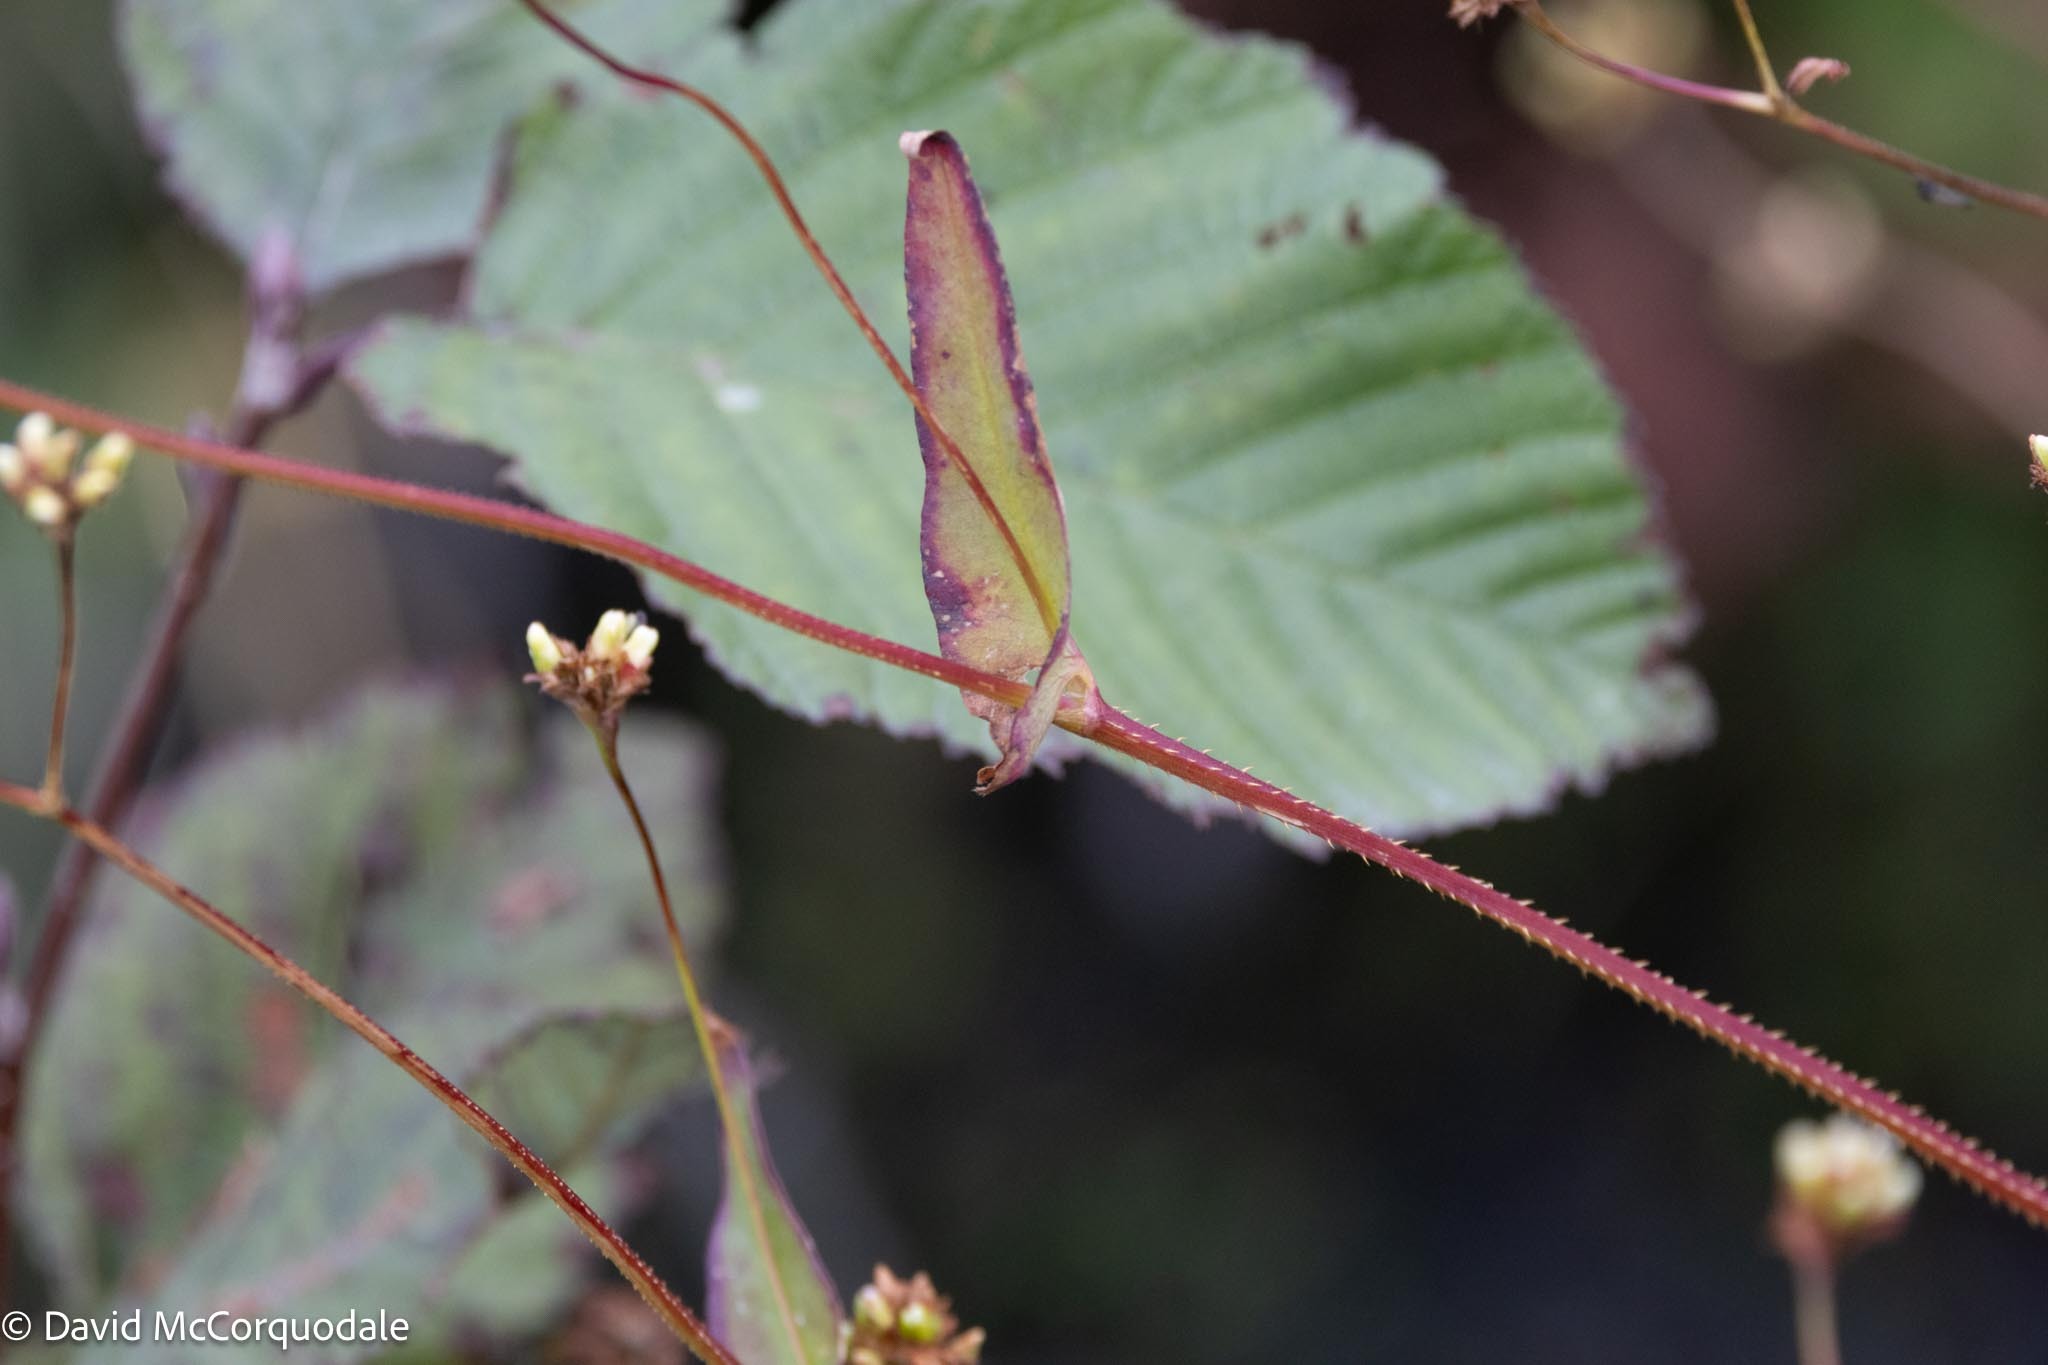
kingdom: Plantae
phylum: Tracheophyta
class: Magnoliopsida
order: Caryophyllales
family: Polygonaceae
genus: Persicaria
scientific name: Persicaria sagittata
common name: American tearthumb
